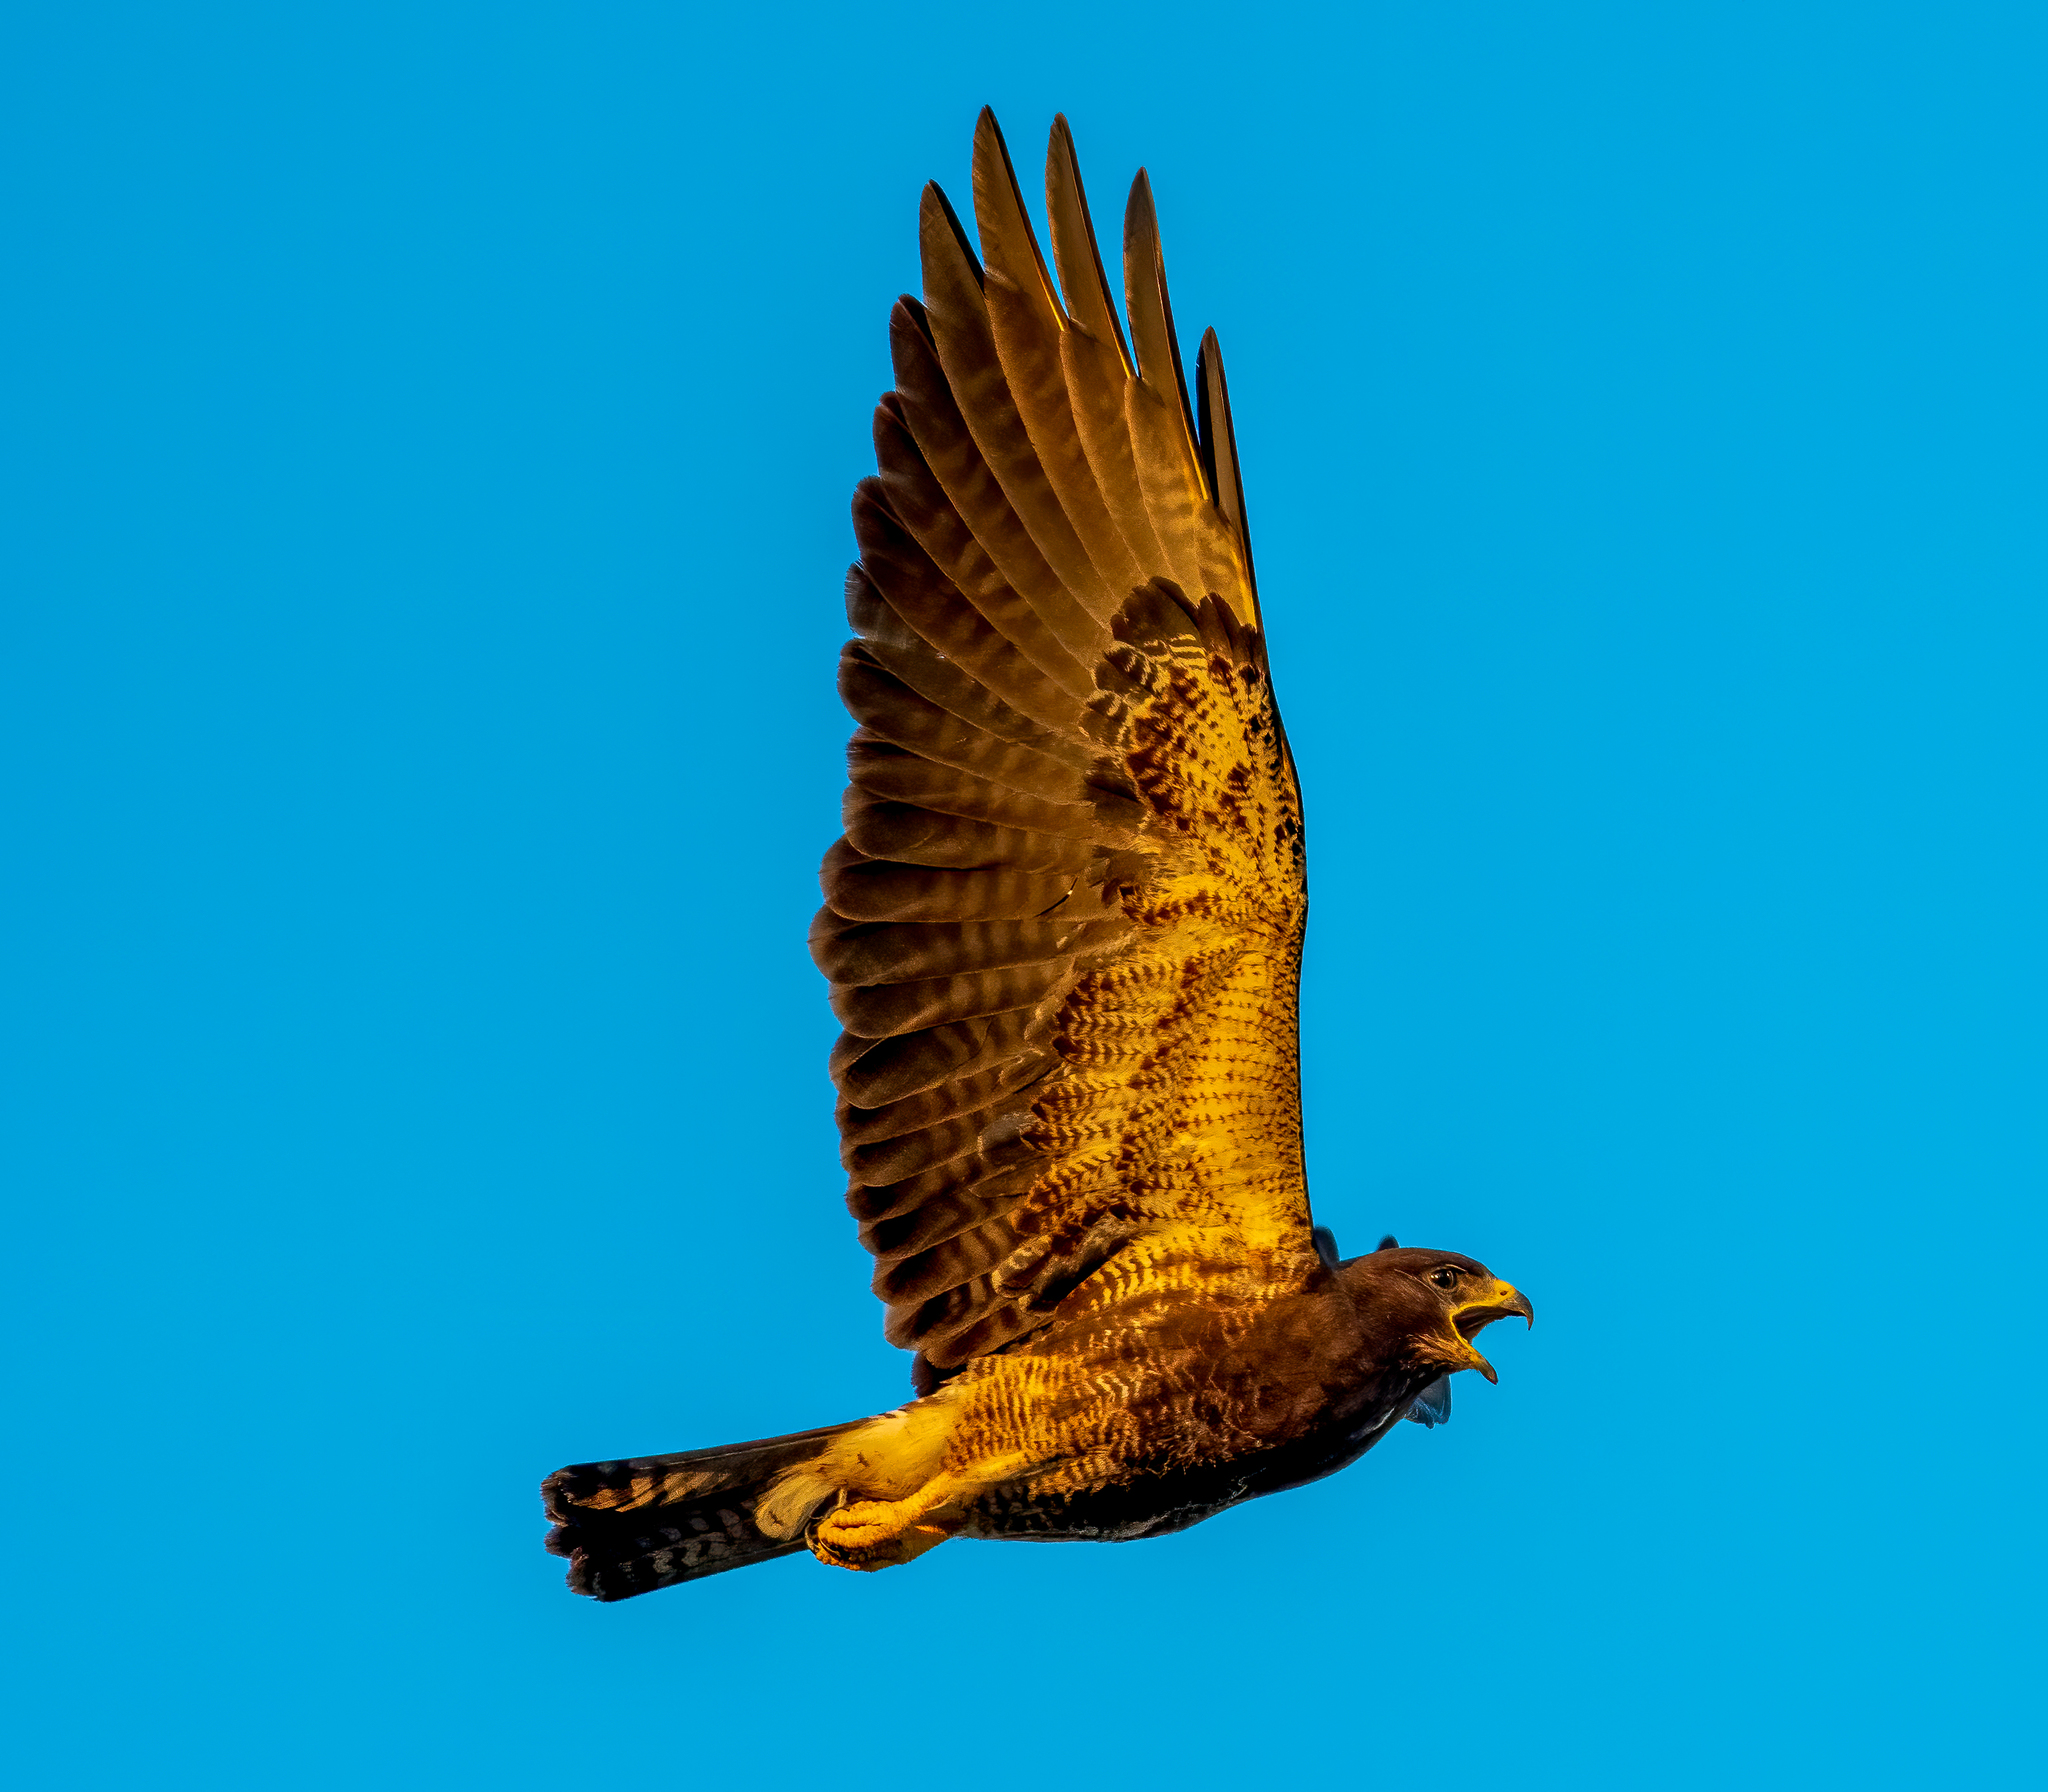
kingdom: Animalia
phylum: Chordata
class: Aves
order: Accipitriformes
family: Accipitridae
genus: Buteo
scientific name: Buteo swainsoni
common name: Swainson's hawk
